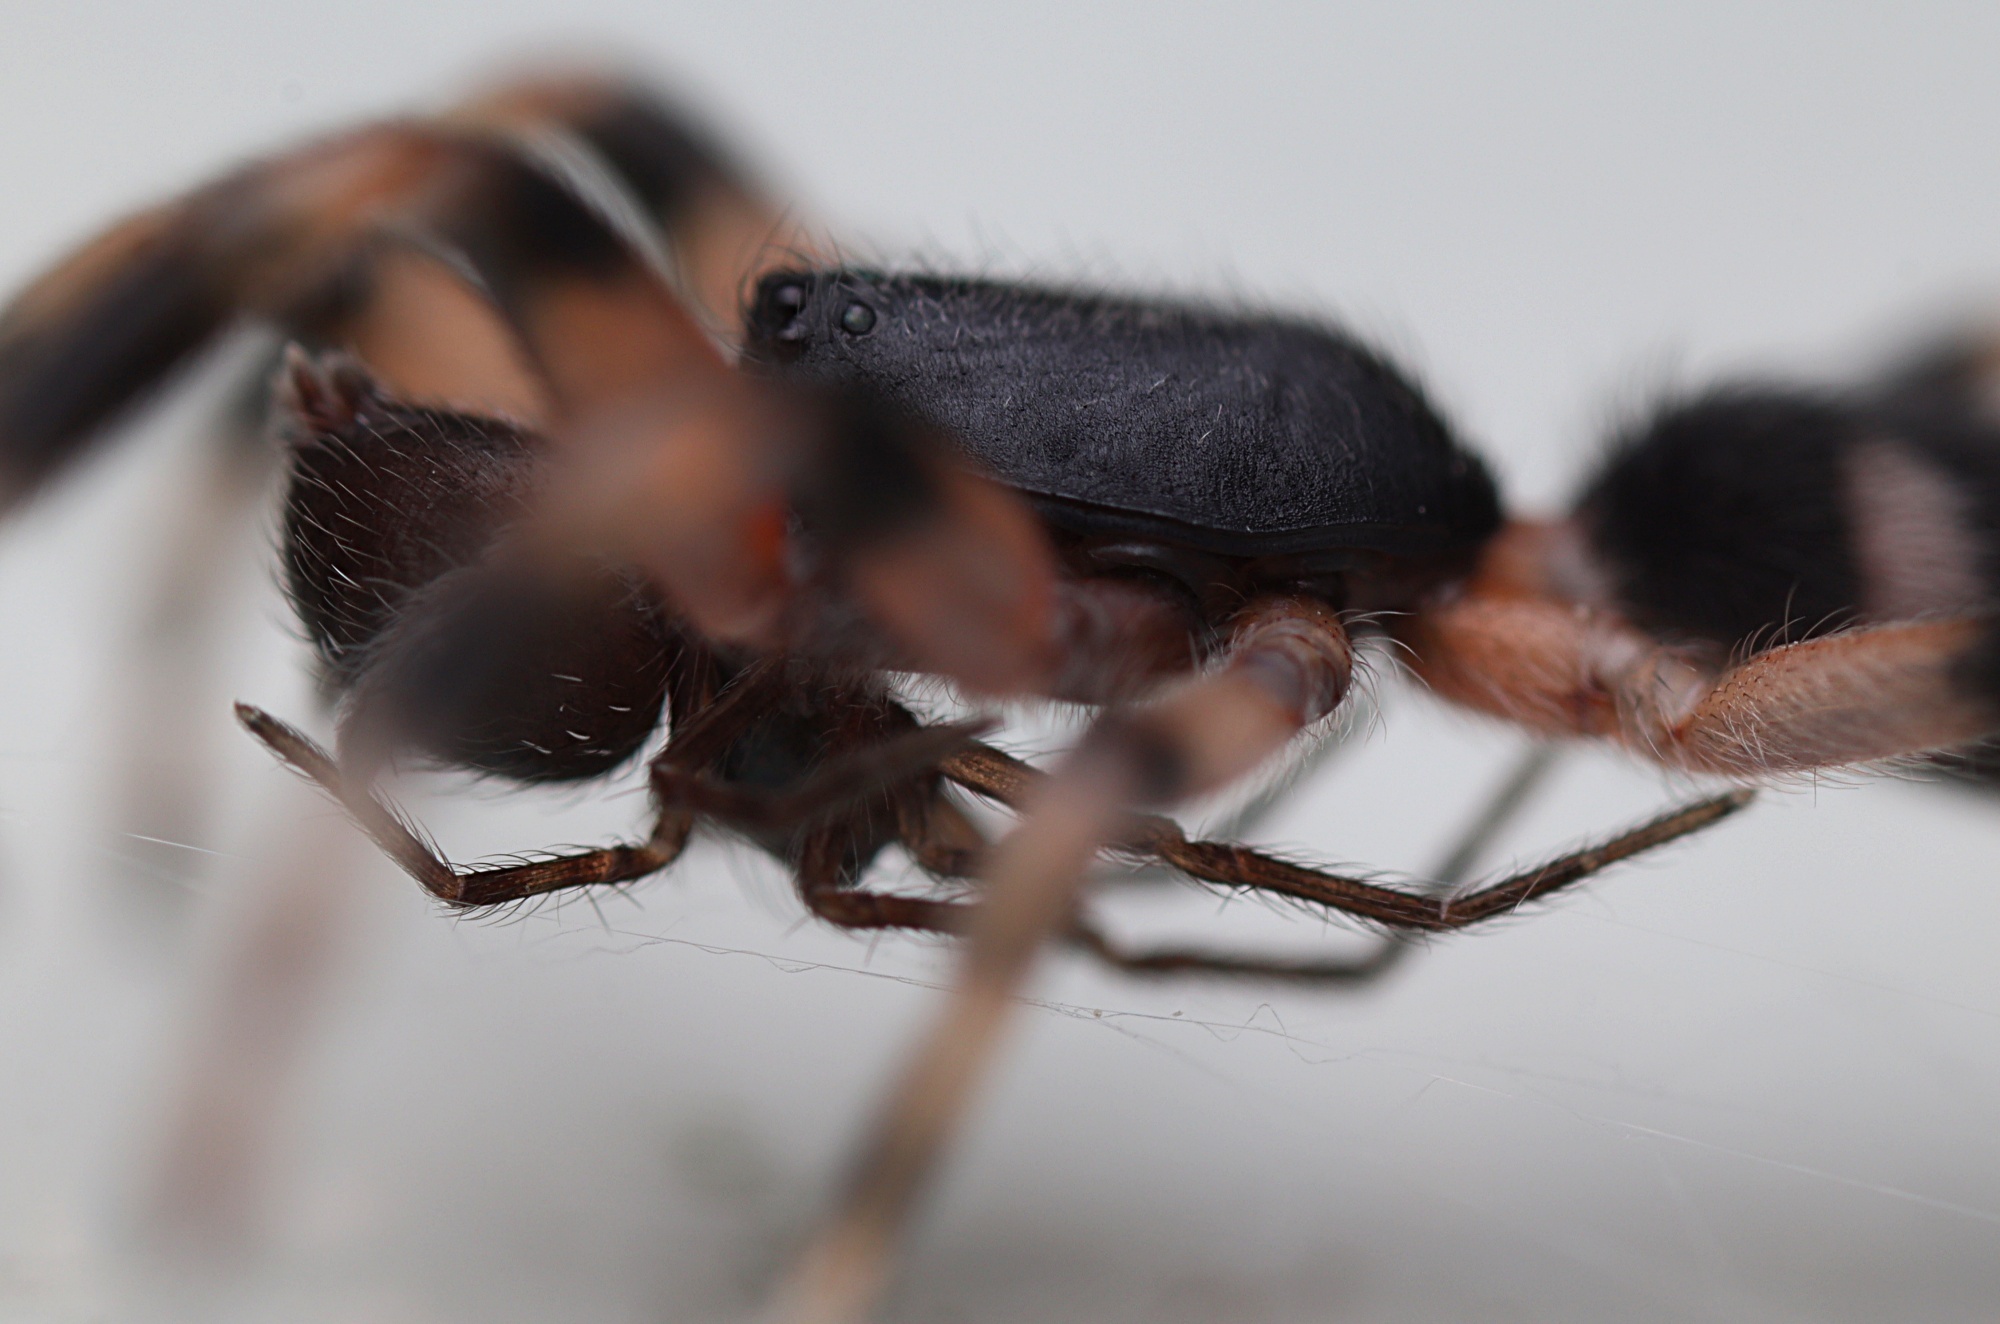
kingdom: Animalia
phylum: Arthropoda
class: Arachnida
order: Araneae
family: Lamponidae
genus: Lampona
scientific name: Lampona murina
